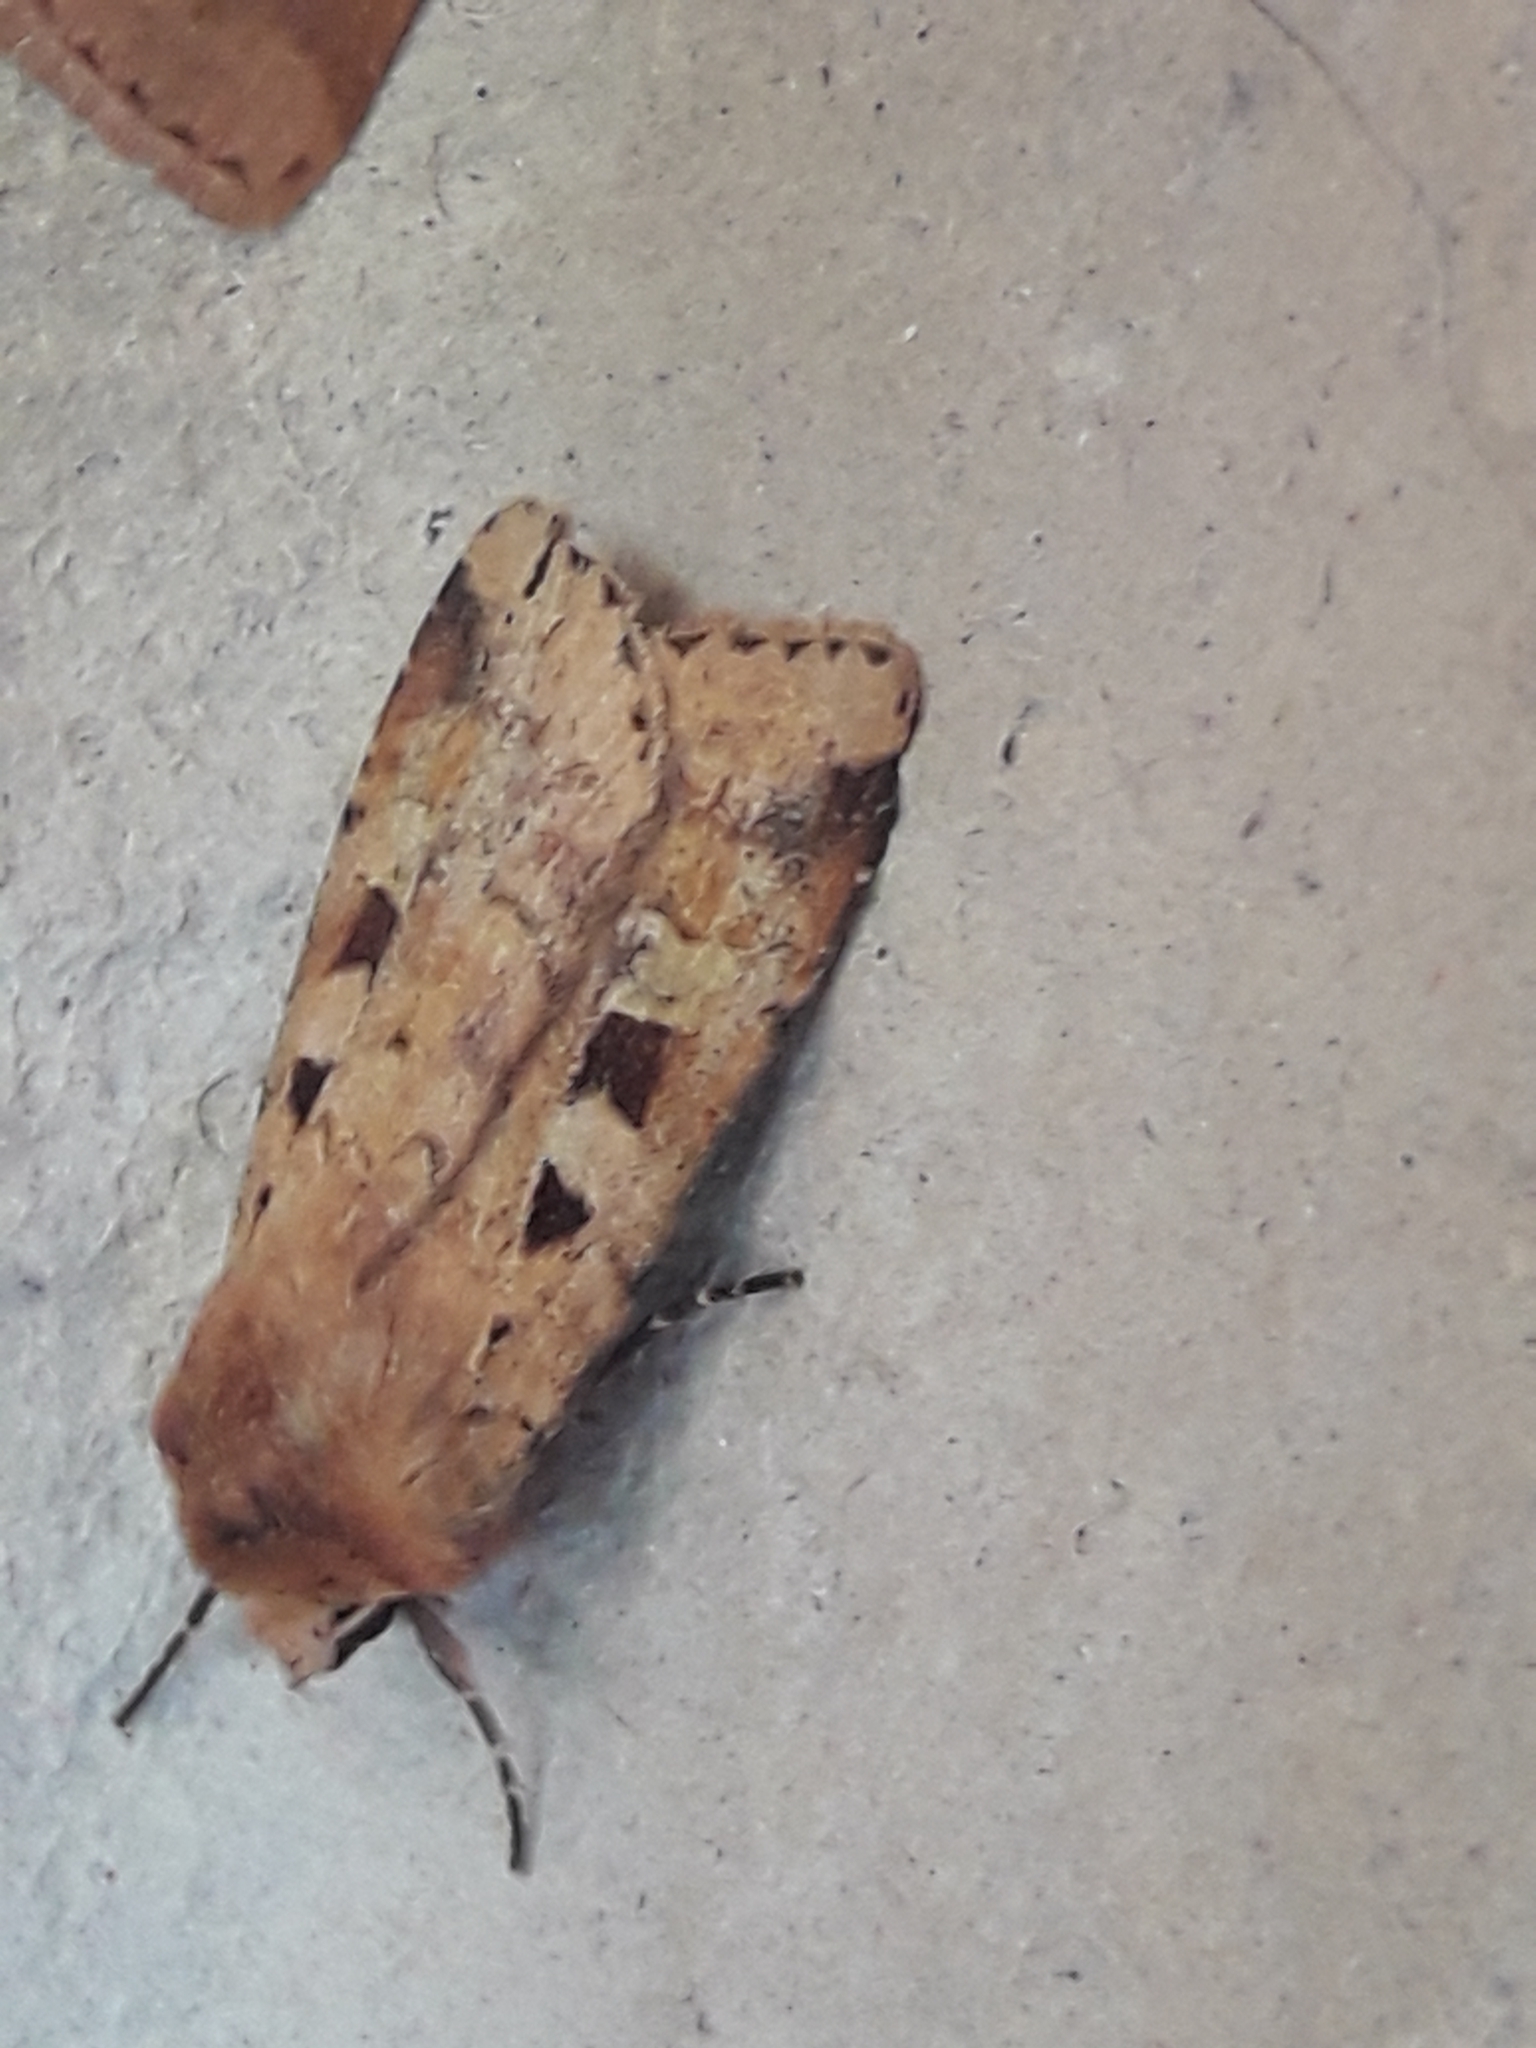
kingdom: Animalia
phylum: Arthropoda
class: Insecta
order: Lepidoptera
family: Noctuidae
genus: Diarsia
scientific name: Diarsia mendica
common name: Ingrailed clay
